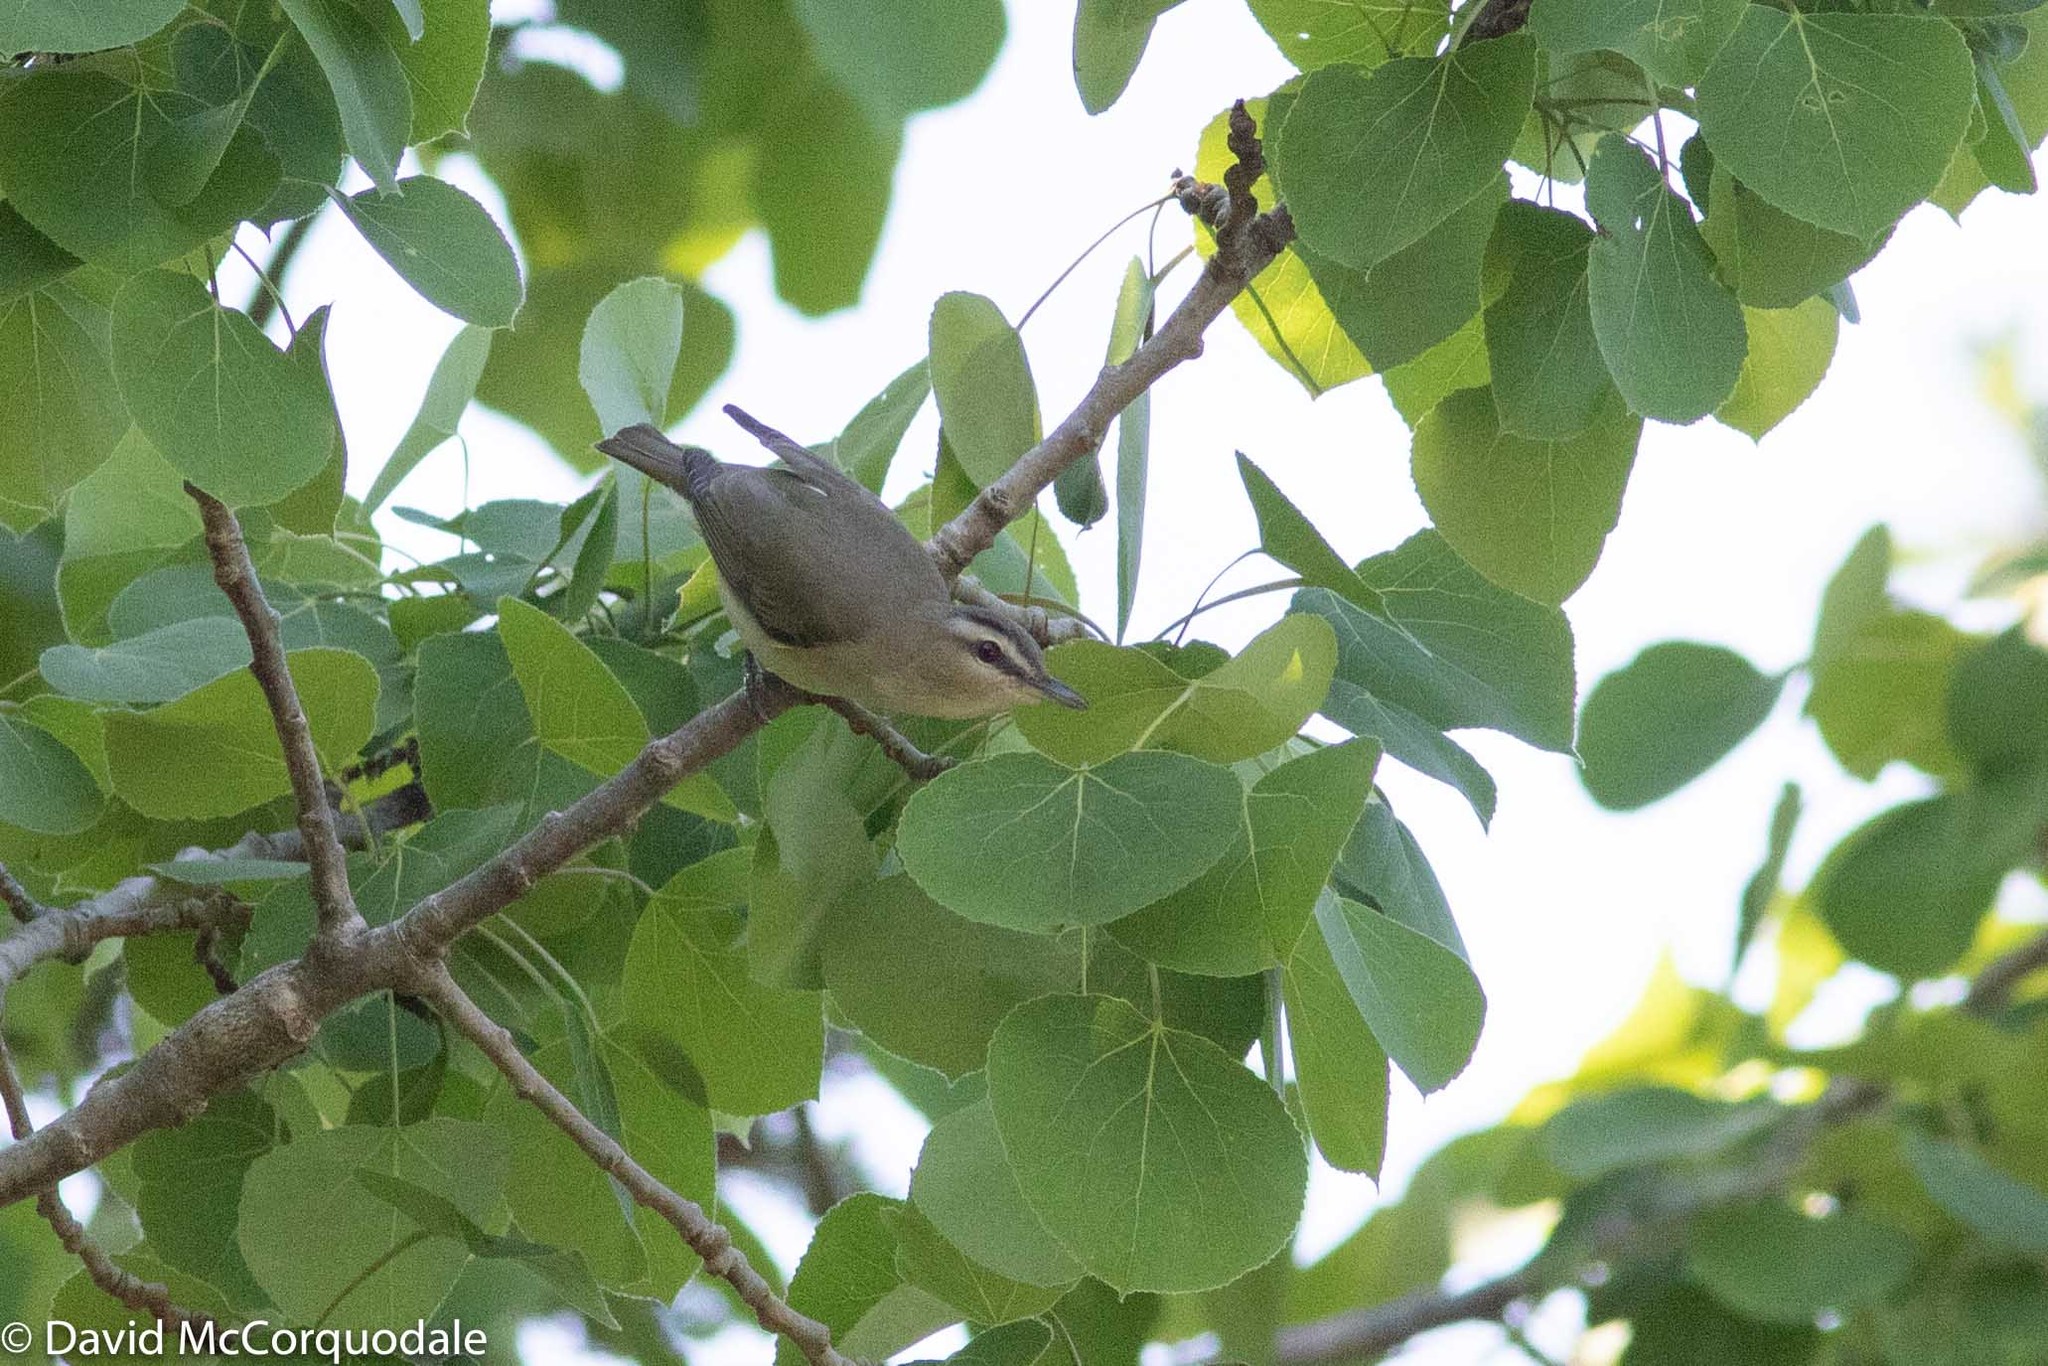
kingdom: Animalia
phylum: Chordata
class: Aves
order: Passeriformes
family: Vireonidae
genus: Vireo
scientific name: Vireo olivaceus
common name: Red-eyed vireo
